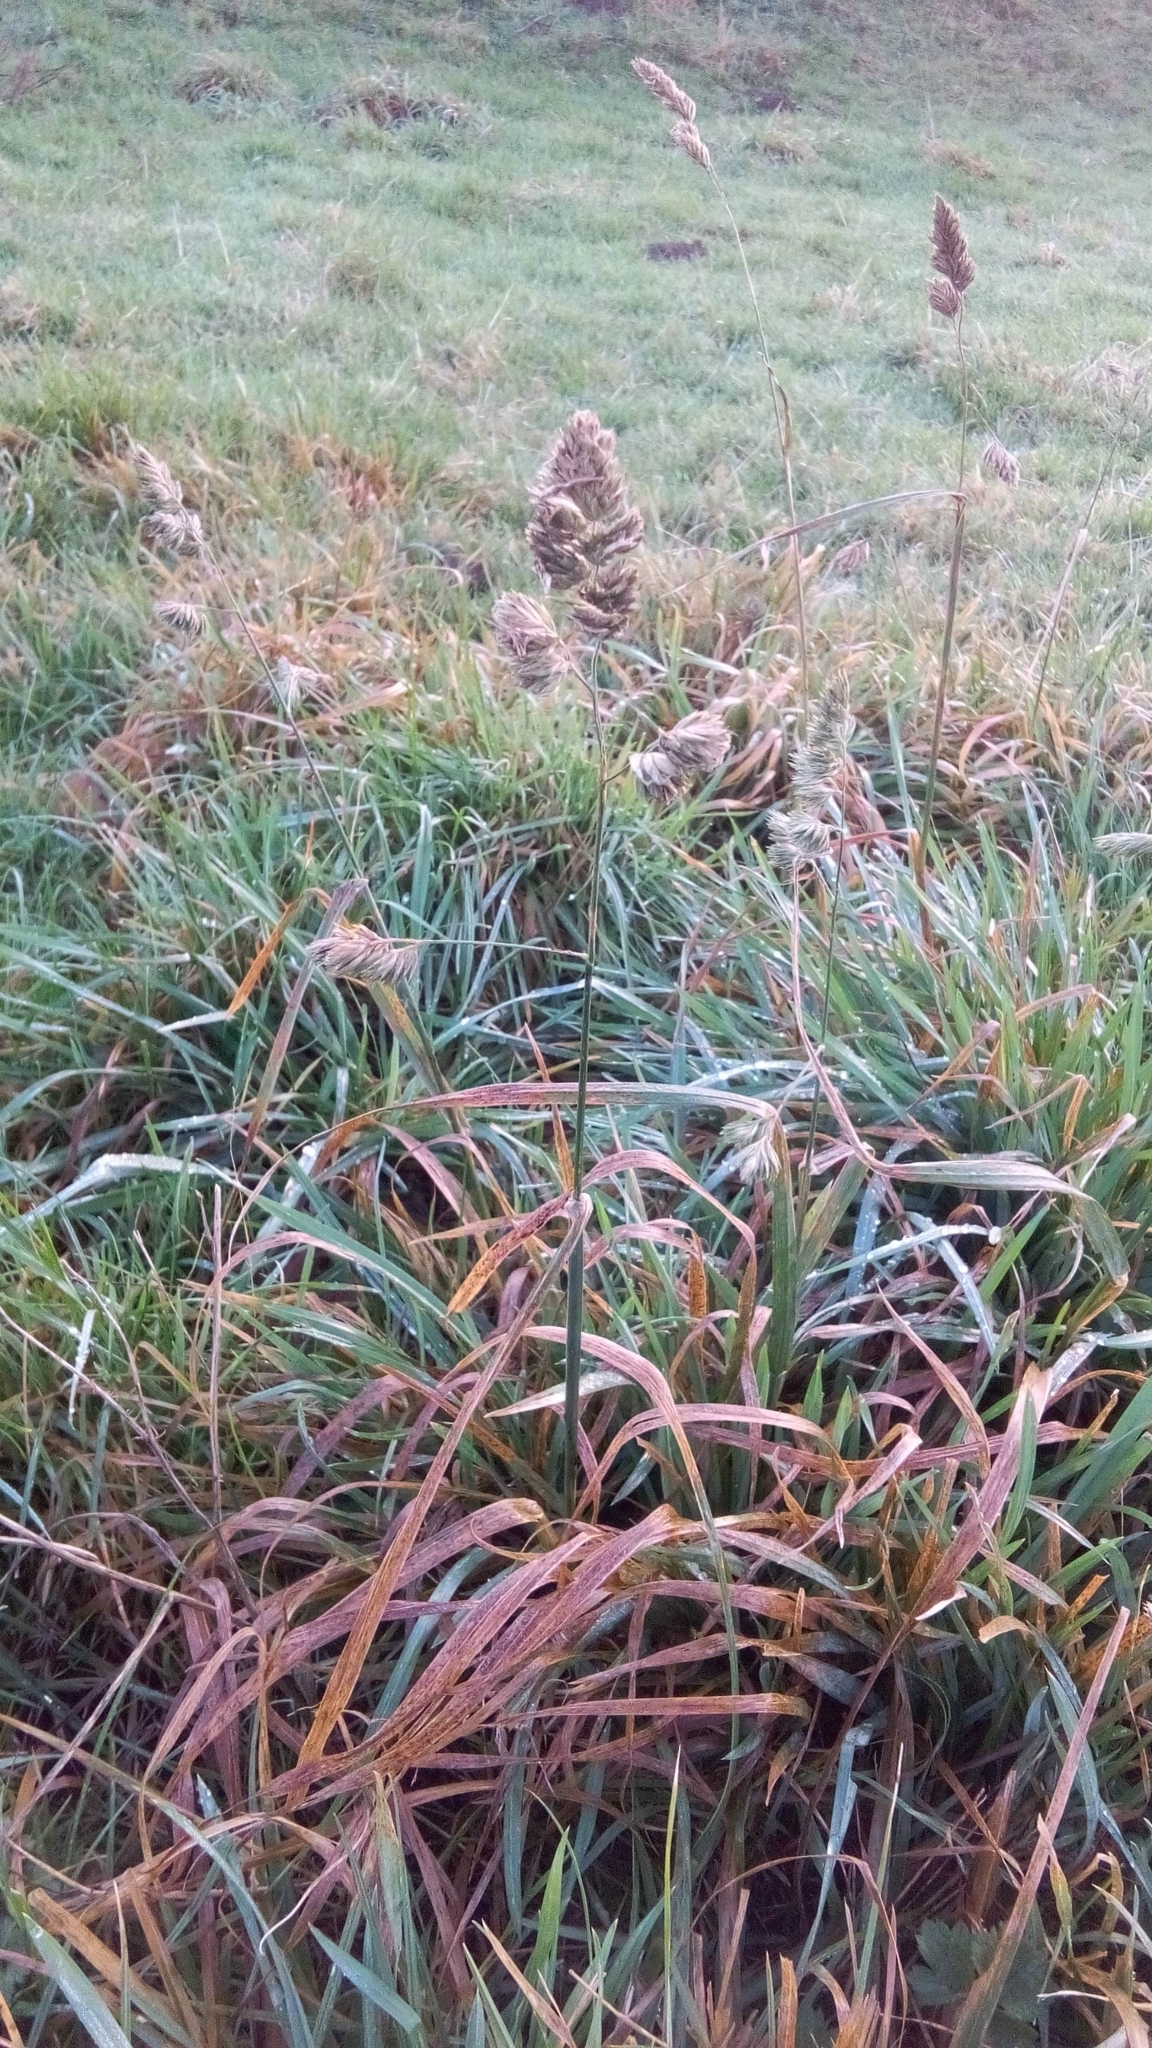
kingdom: Plantae
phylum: Tracheophyta
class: Liliopsida
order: Poales
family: Poaceae
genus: Dactylis
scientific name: Dactylis glomerata
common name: Orchardgrass
